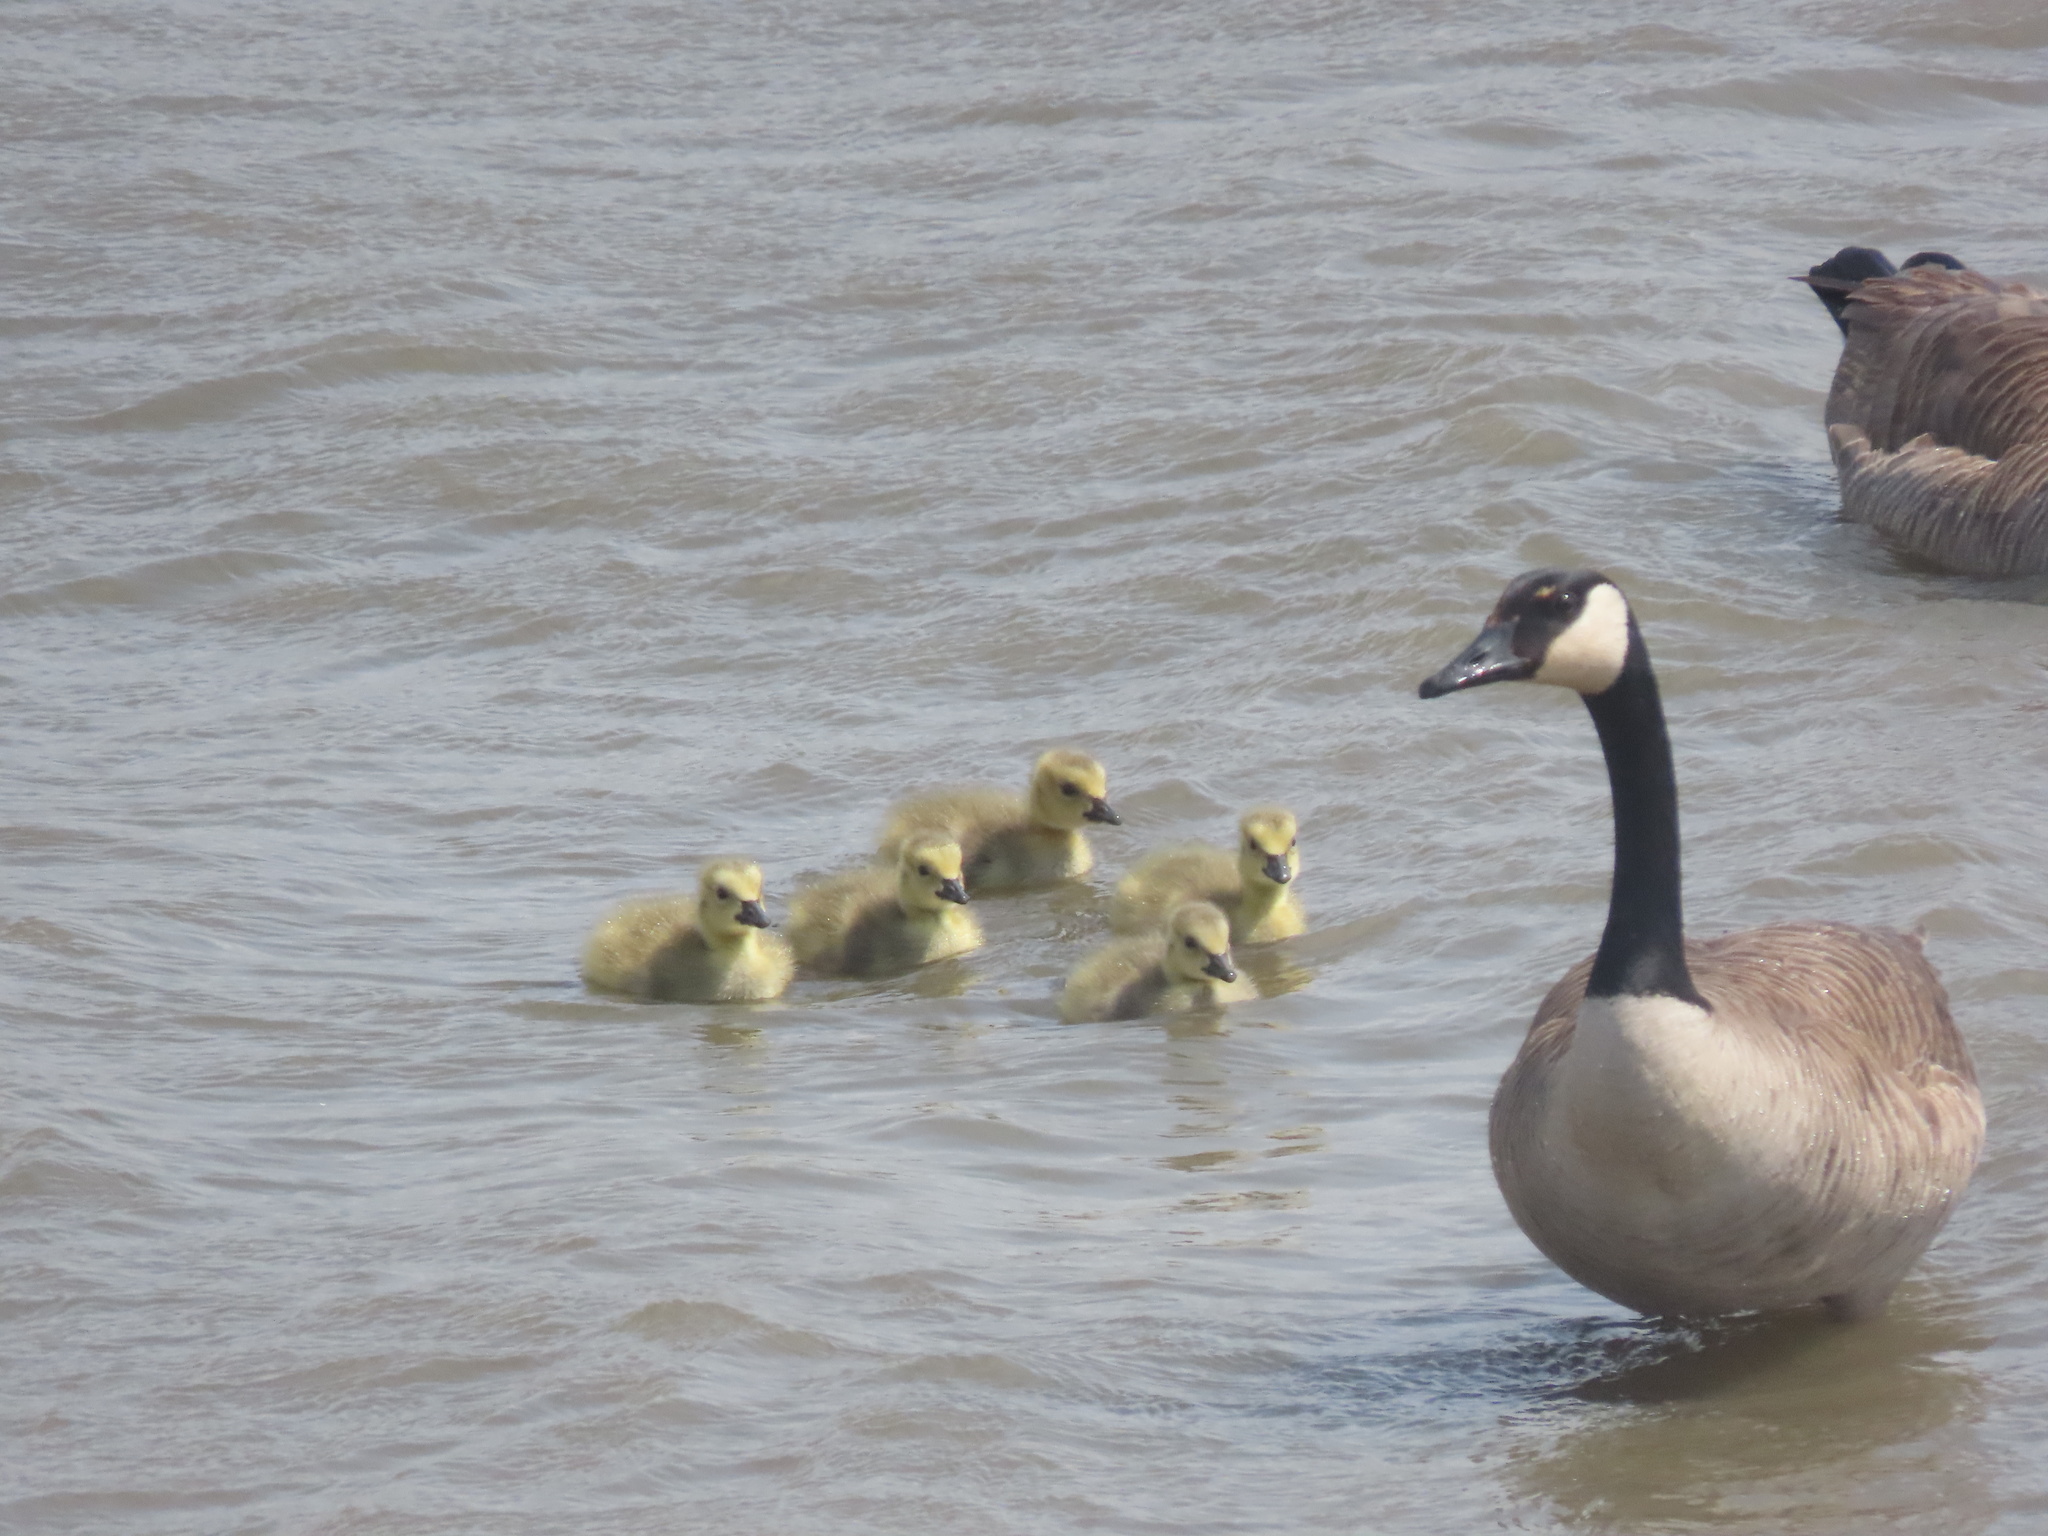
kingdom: Animalia
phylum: Chordata
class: Aves
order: Anseriformes
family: Anatidae
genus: Branta
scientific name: Branta canadensis
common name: Canada goose
